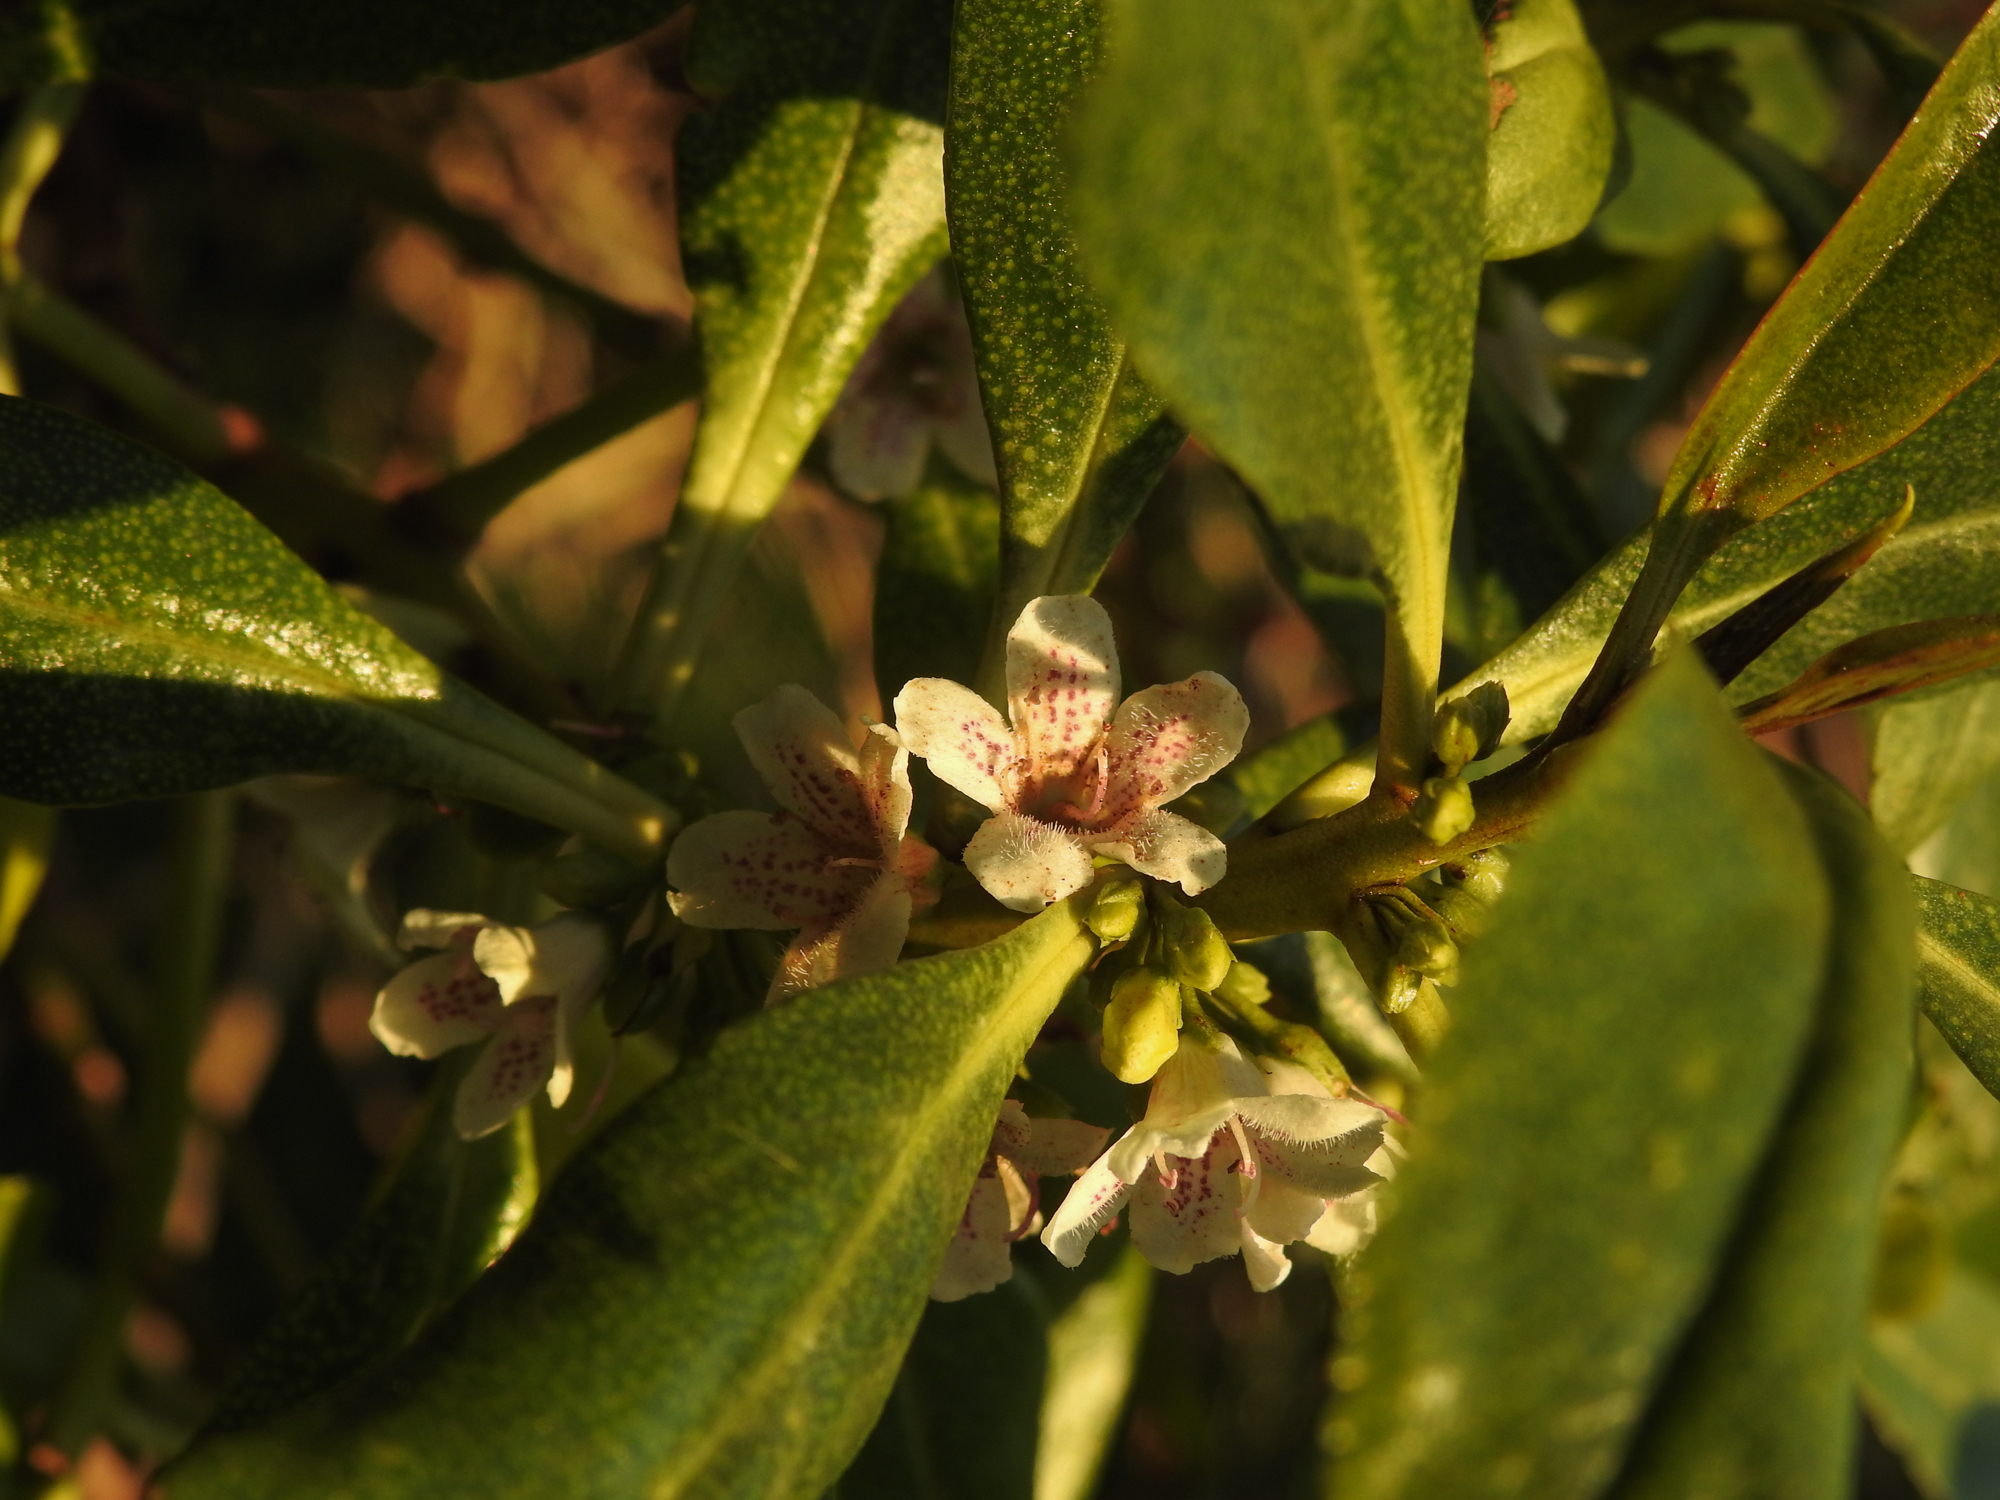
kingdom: Plantae
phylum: Tracheophyta
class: Magnoliopsida
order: Lamiales
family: Scrophulariaceae
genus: Myoporum
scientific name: Myoporum laetum
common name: Ngaio tree
